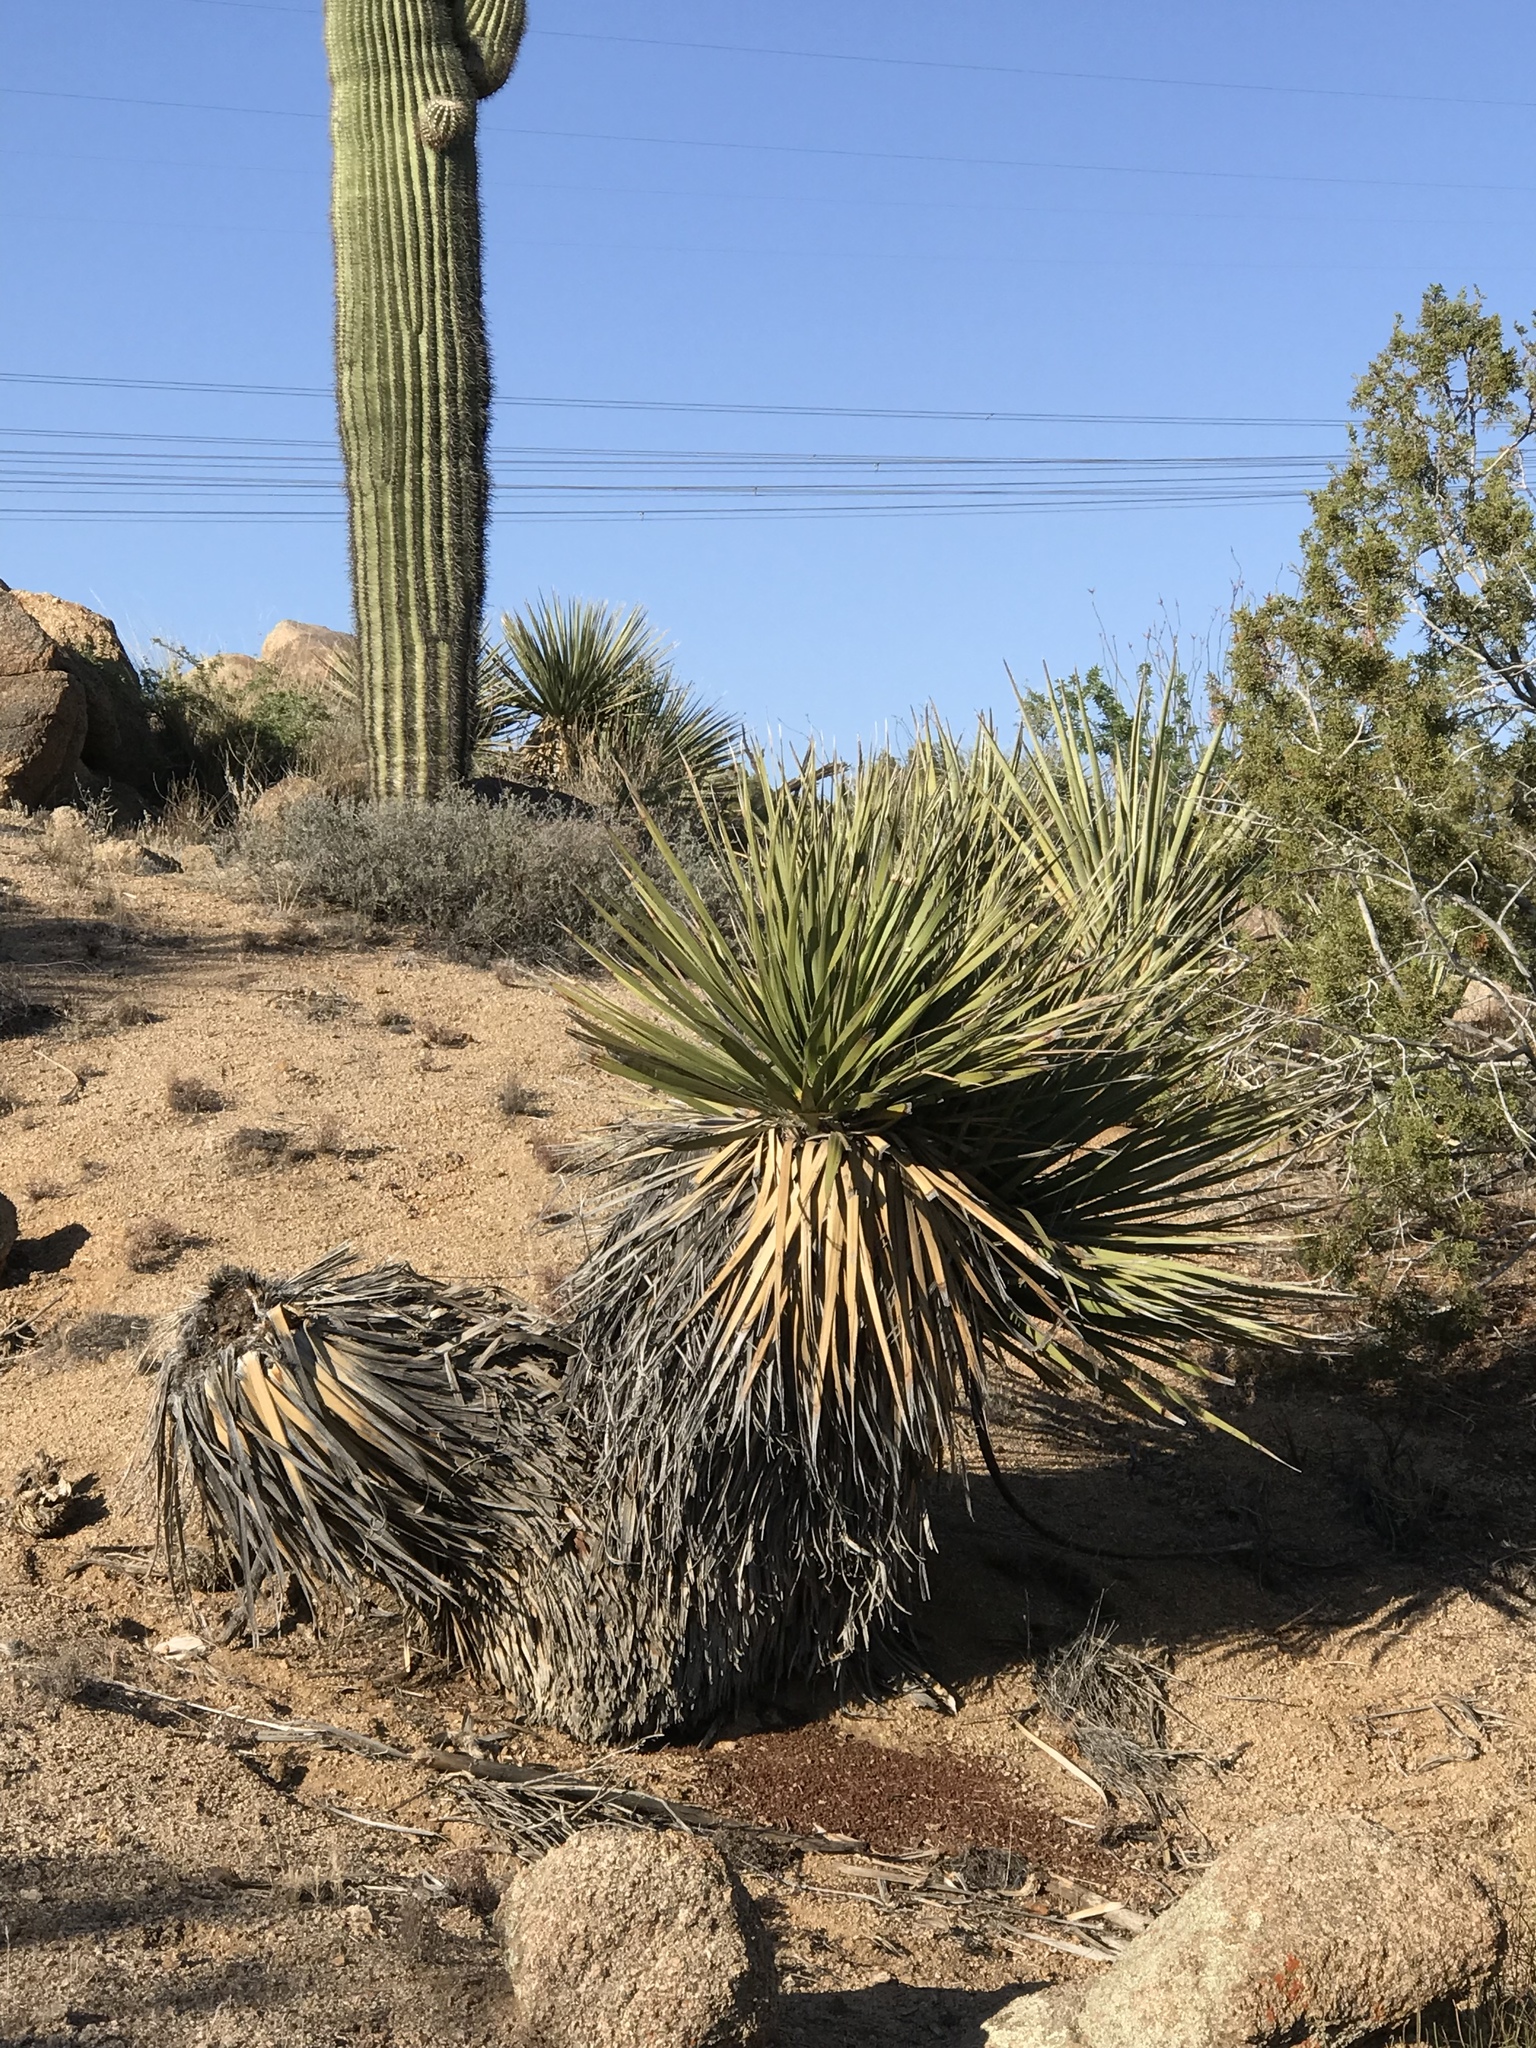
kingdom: Plantae
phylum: Tracheophyta
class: Liliopsida
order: Asparagales
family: Asparagaceae
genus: Nolina
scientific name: Nolina bigelovii
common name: Bigelow bear-grass
